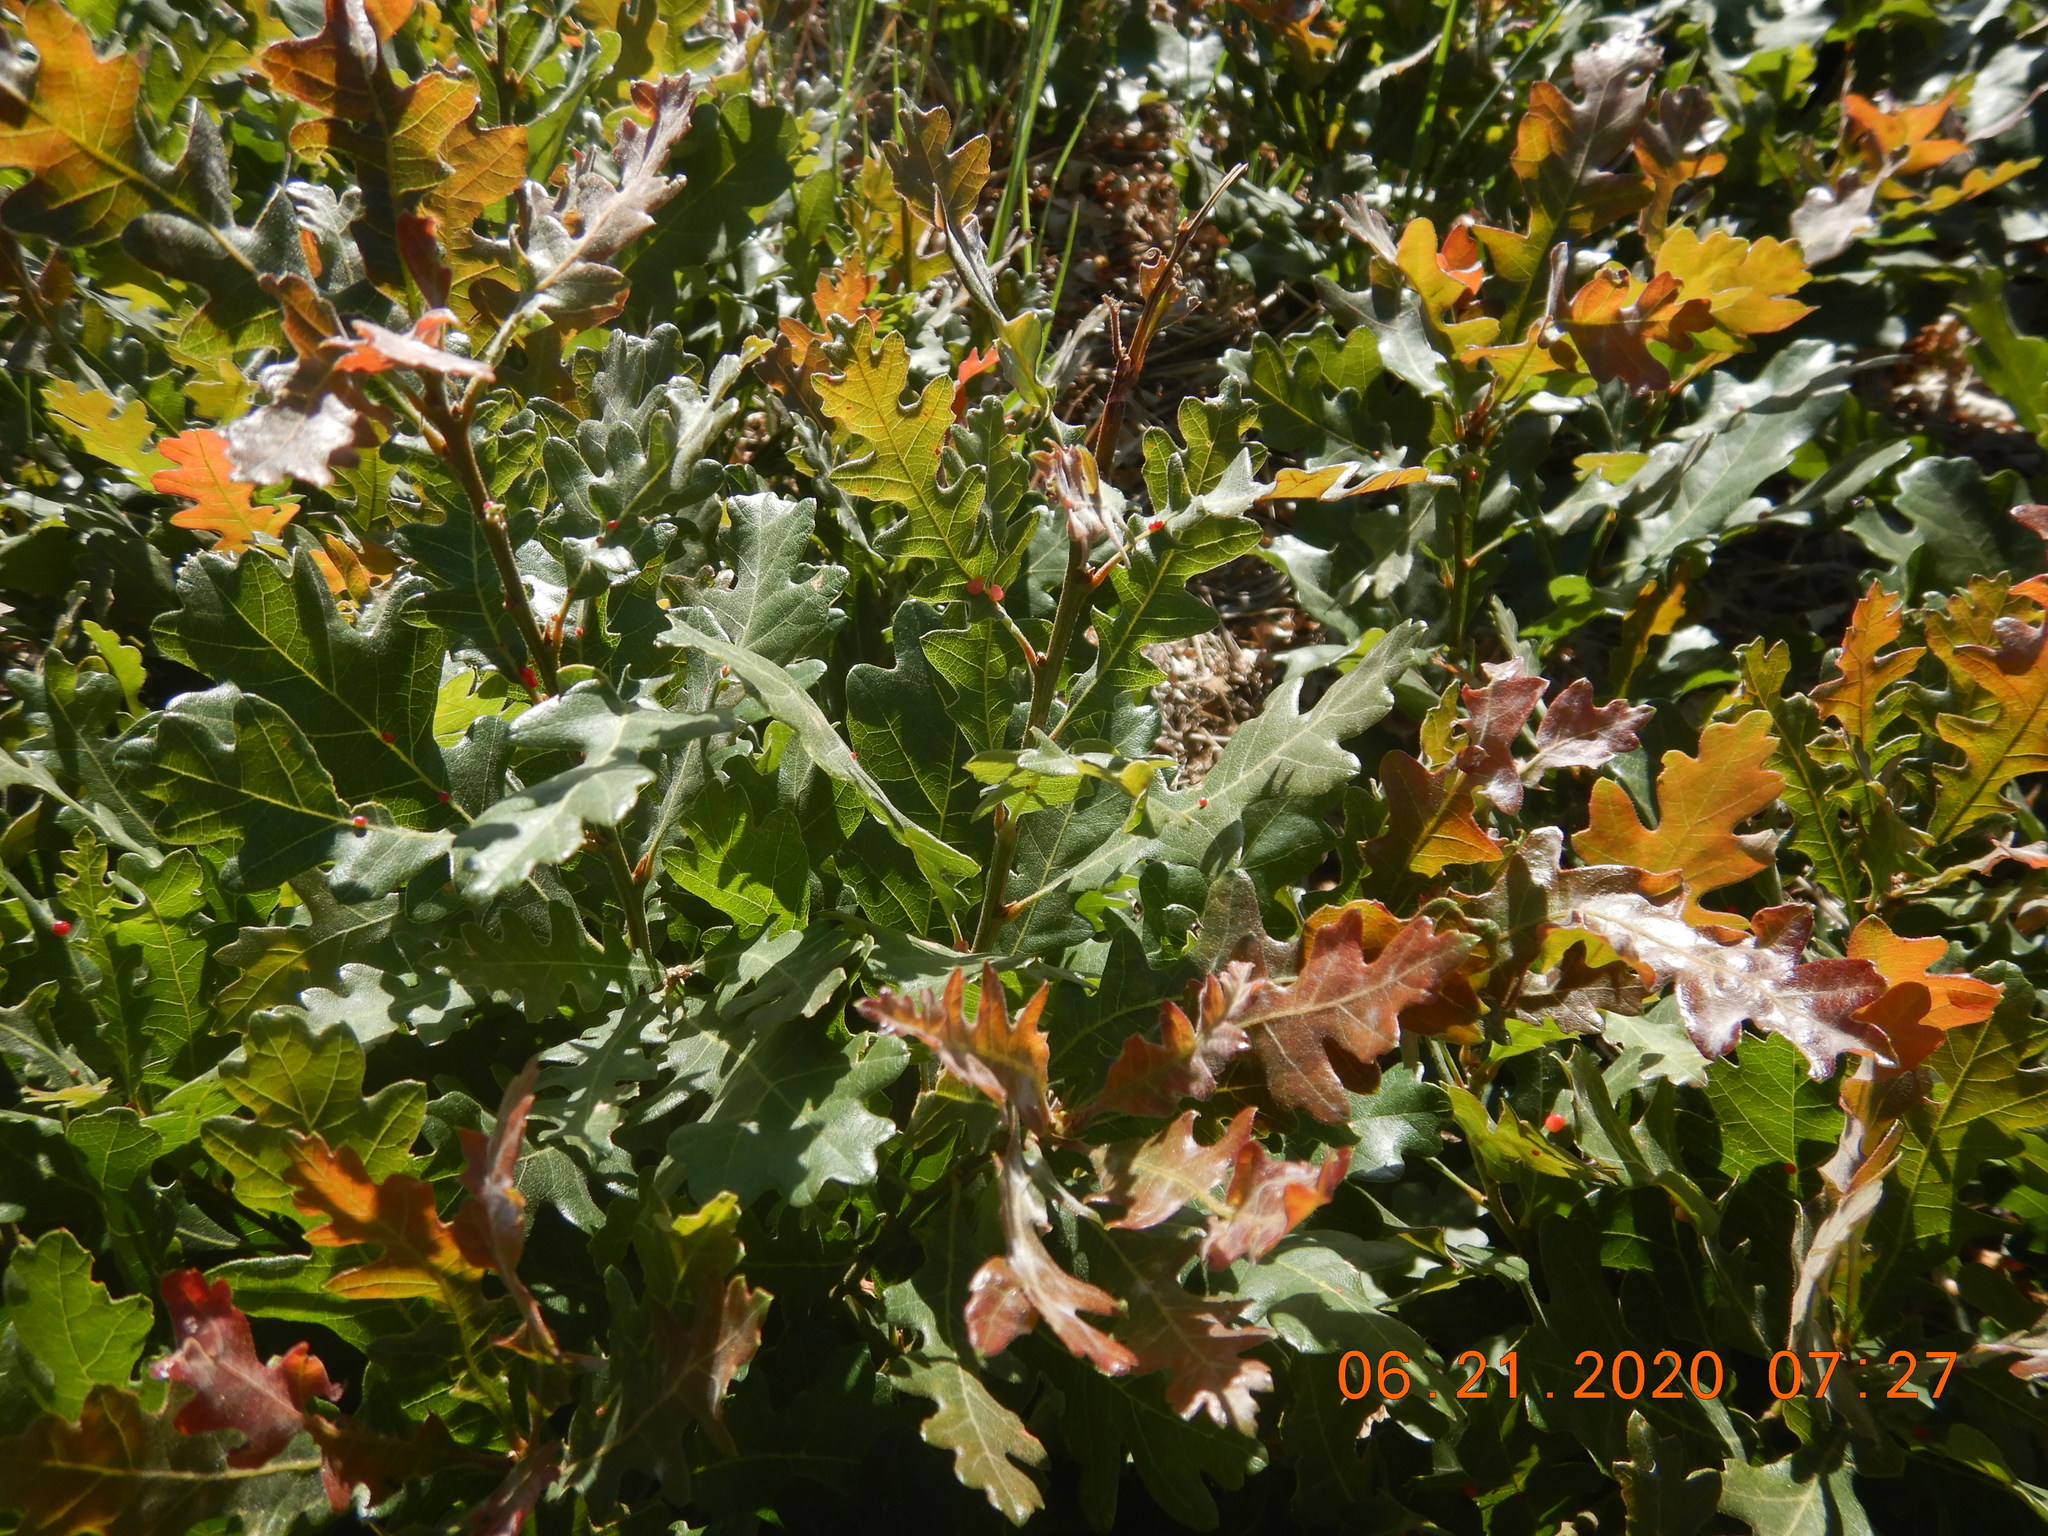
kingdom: Plantae
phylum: Tracheophyta
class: Magnoliopsida
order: Fagales
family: Fagaceae
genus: Quercus
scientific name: Quercus gambelii
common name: Gambel oak
